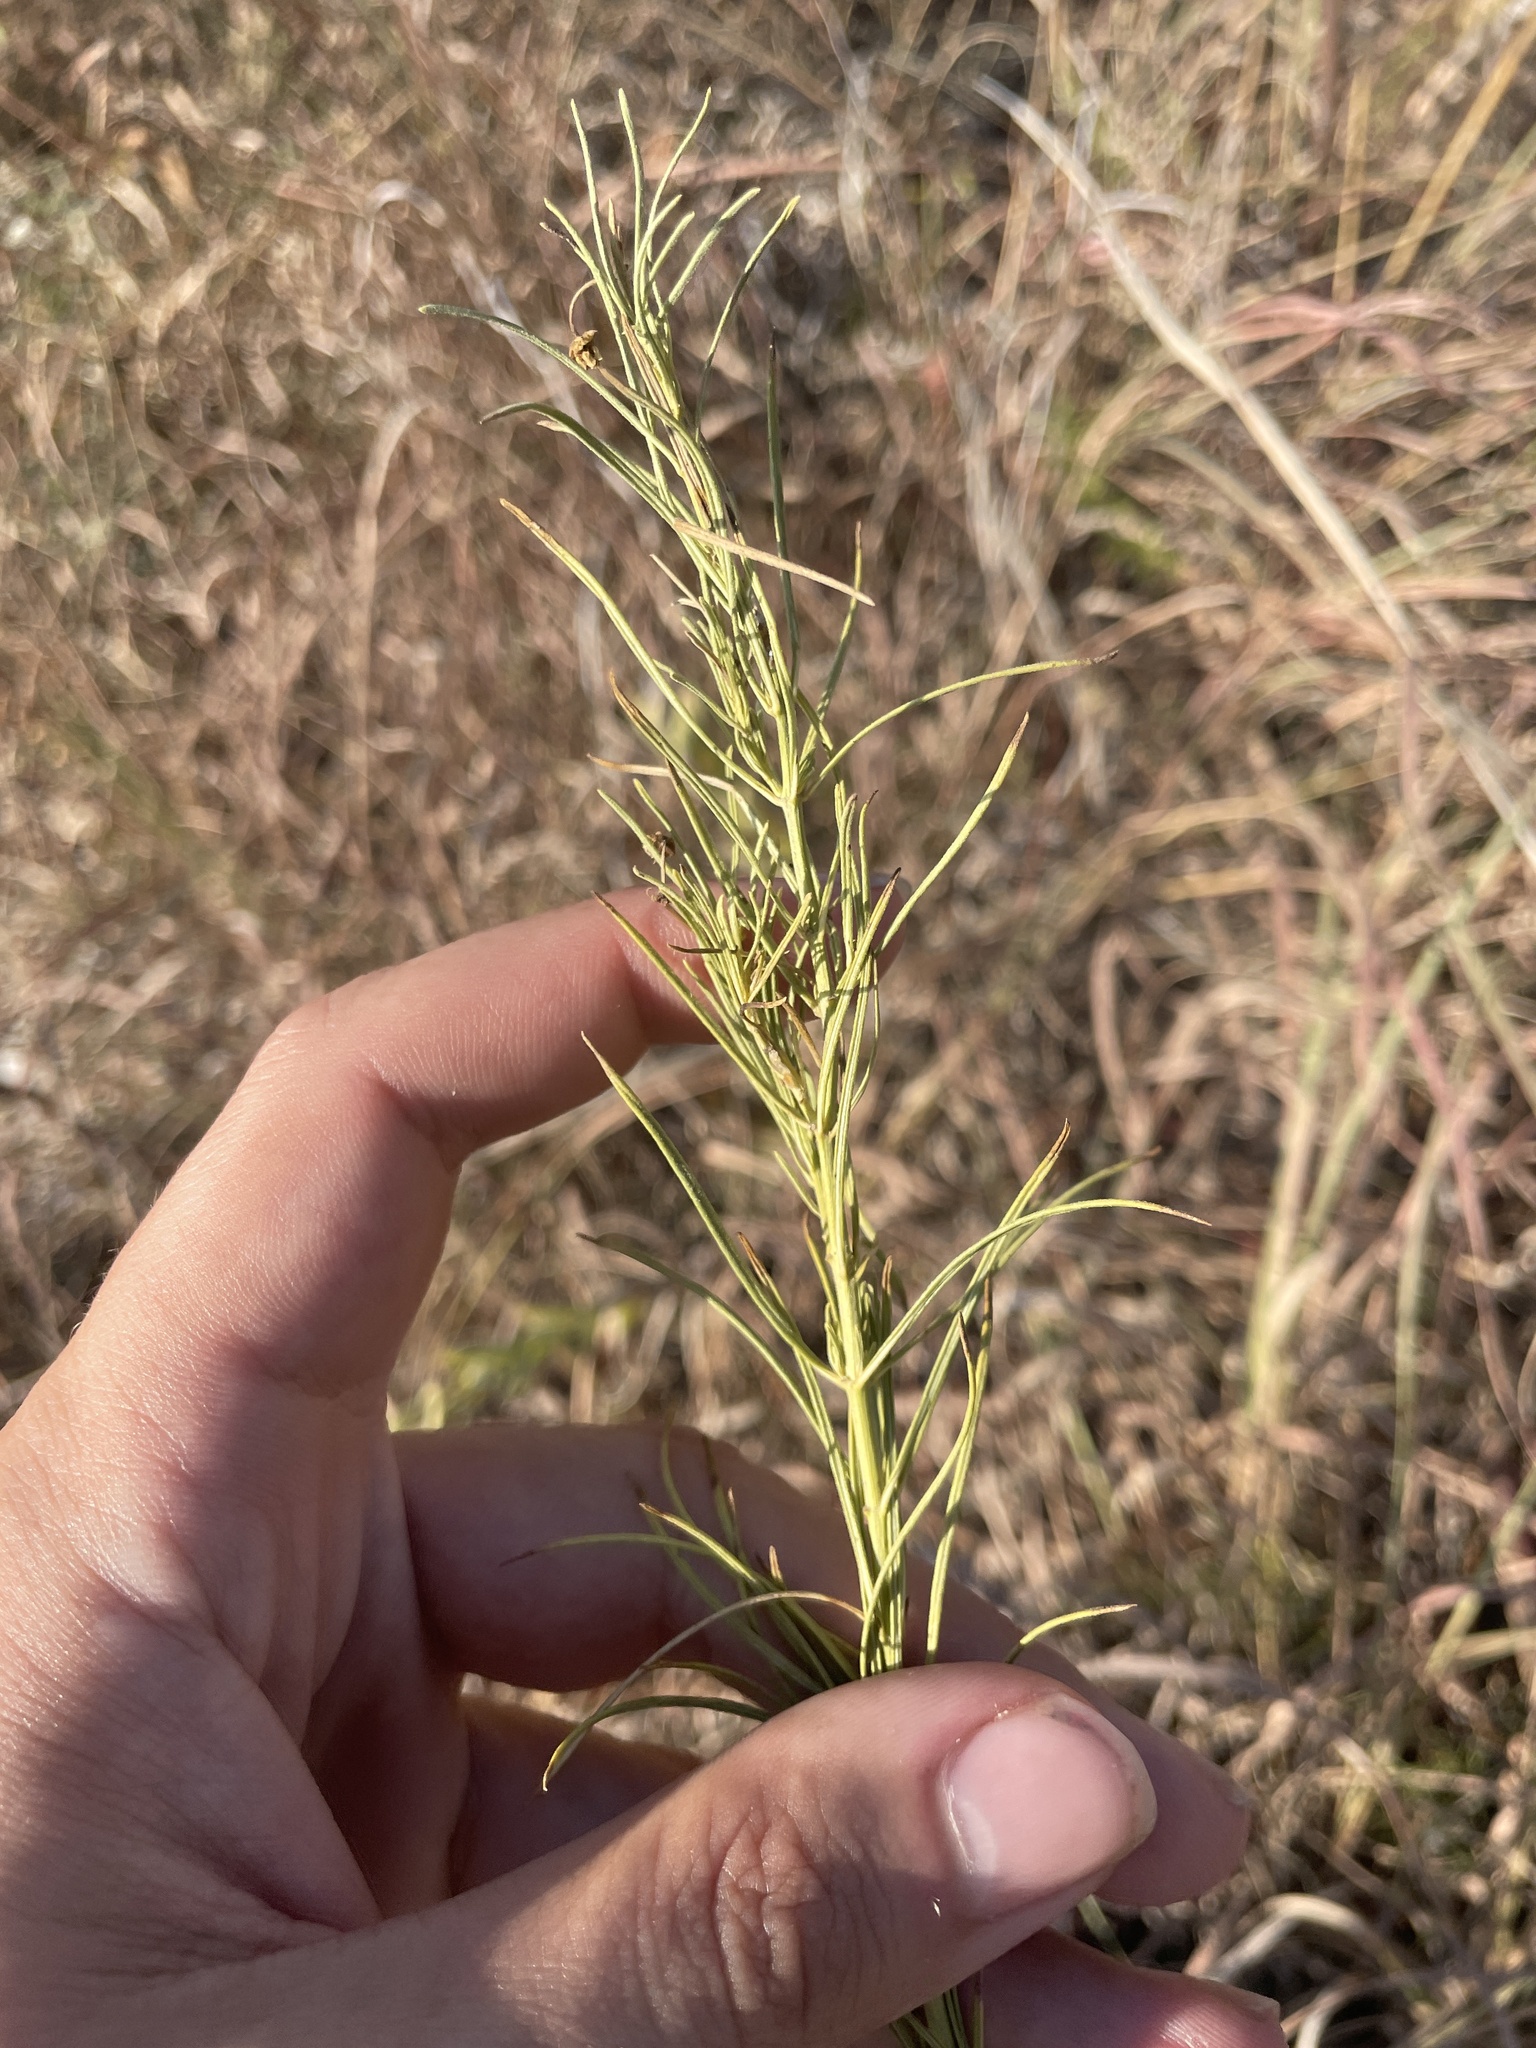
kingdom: Plantae
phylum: Tracheophyta
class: Magnoliopsida
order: Gentianales
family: Apocynaceae
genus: Asclepias
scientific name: Asclepias verticillata
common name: Eastern whorled milkweed
